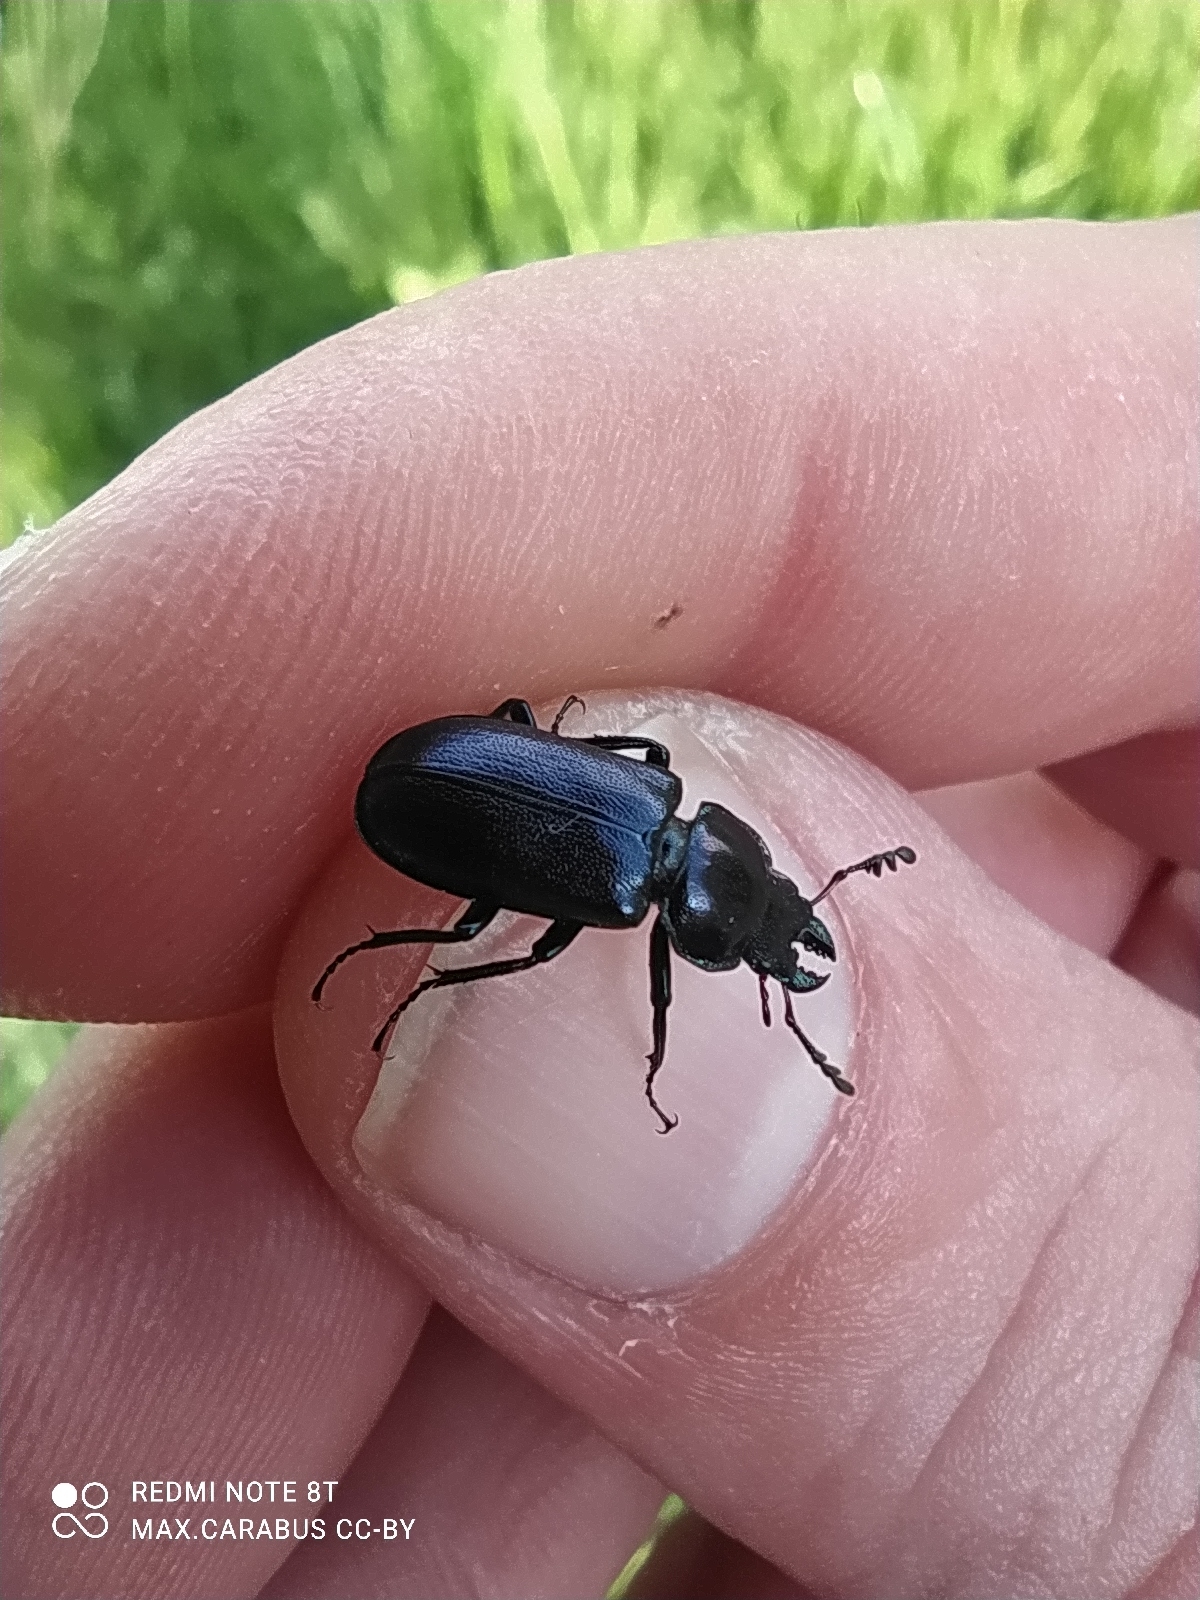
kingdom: Animalia
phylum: Arthropoda
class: Insecta
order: Coleoptera
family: Lucanidae
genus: Platycerus
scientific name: Platycerus caprea
